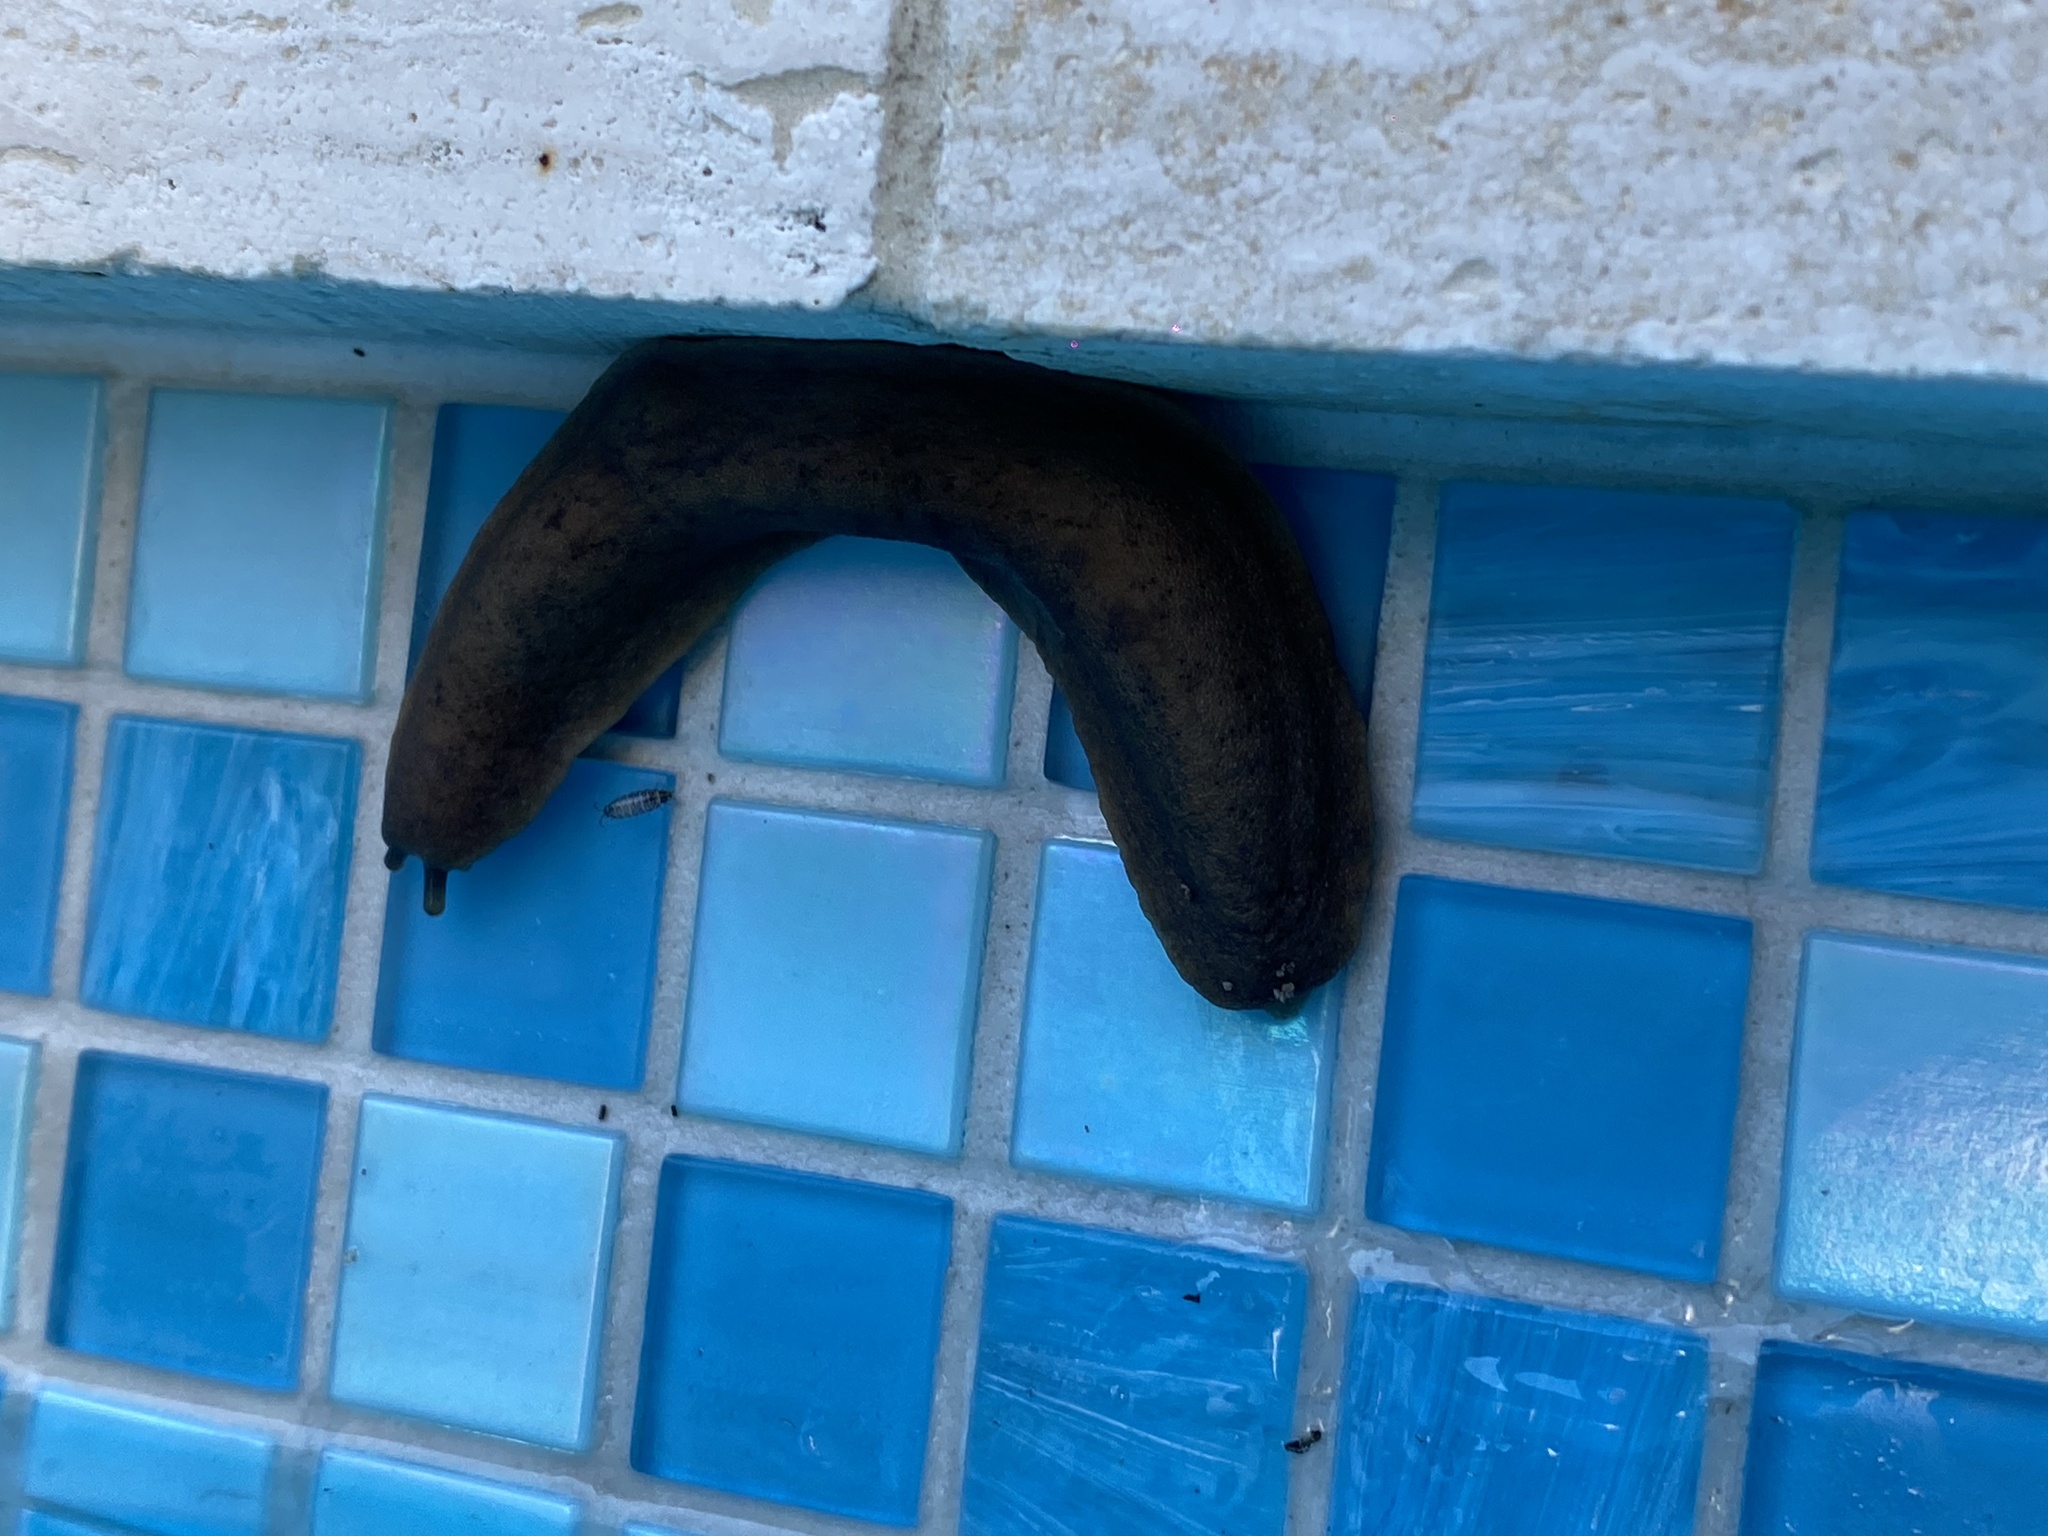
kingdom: Animalia
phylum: Mollusca
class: Gastropoda
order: Systellommatophora
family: Veronicellidae
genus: Sarasinula
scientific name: Sarasinula plebeia
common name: Caribbean leatherleaf
